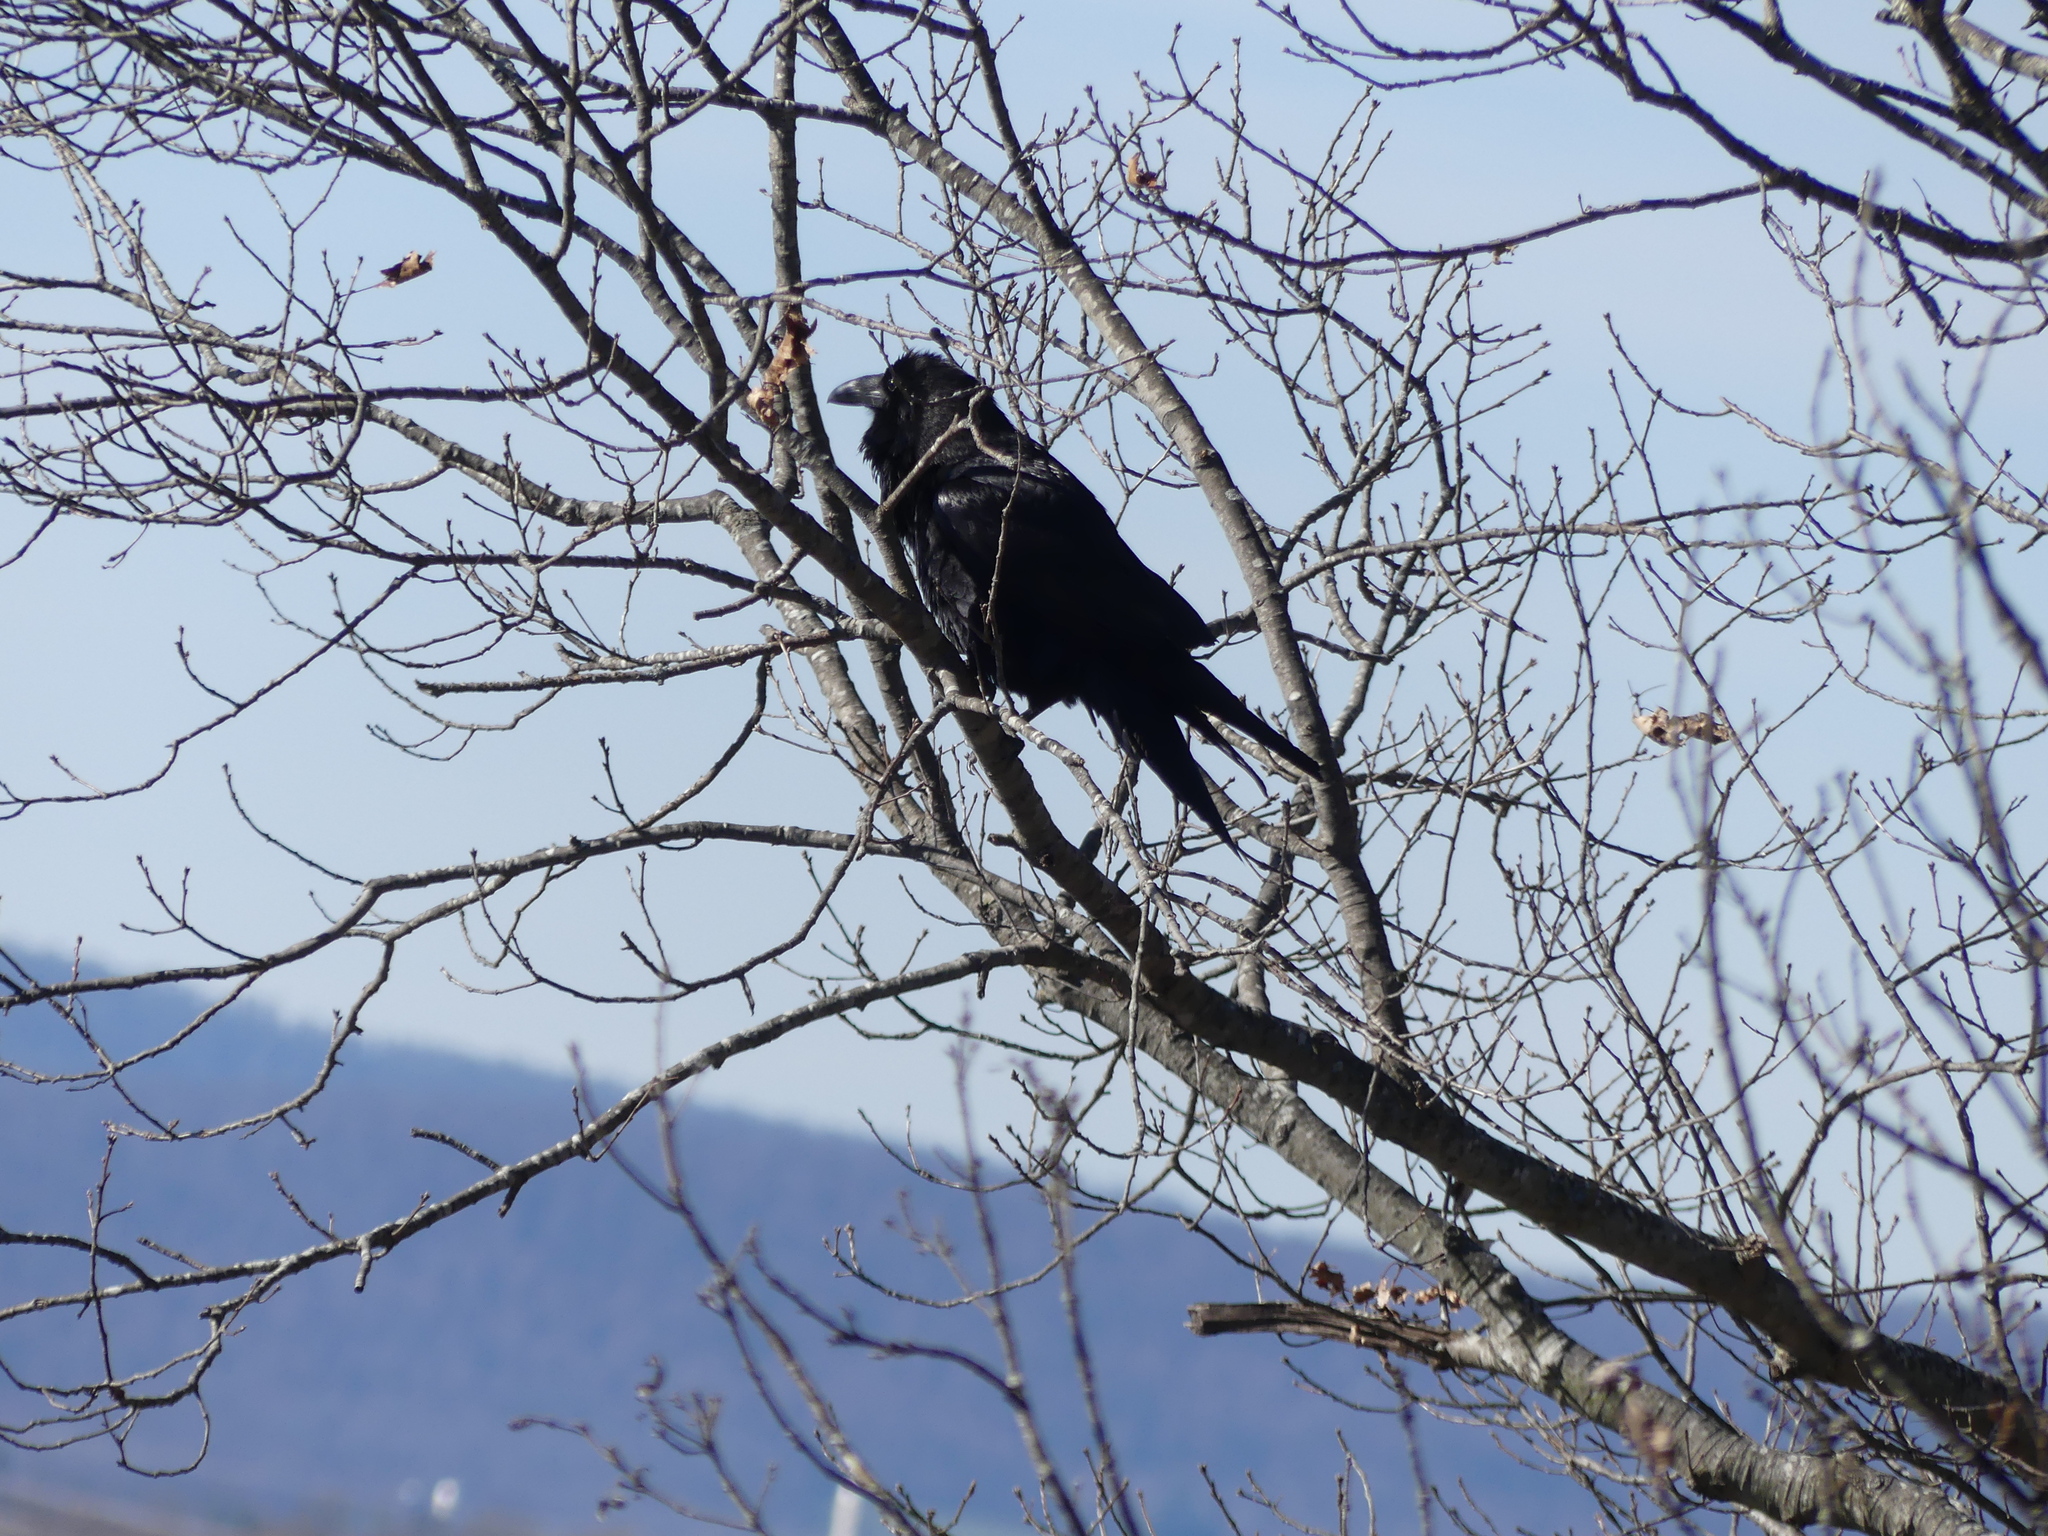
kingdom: Animalia
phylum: Chordata
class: Aves
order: Passeriformes
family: Corvidae
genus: Corvus
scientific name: Corvus corax
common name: Common raven
